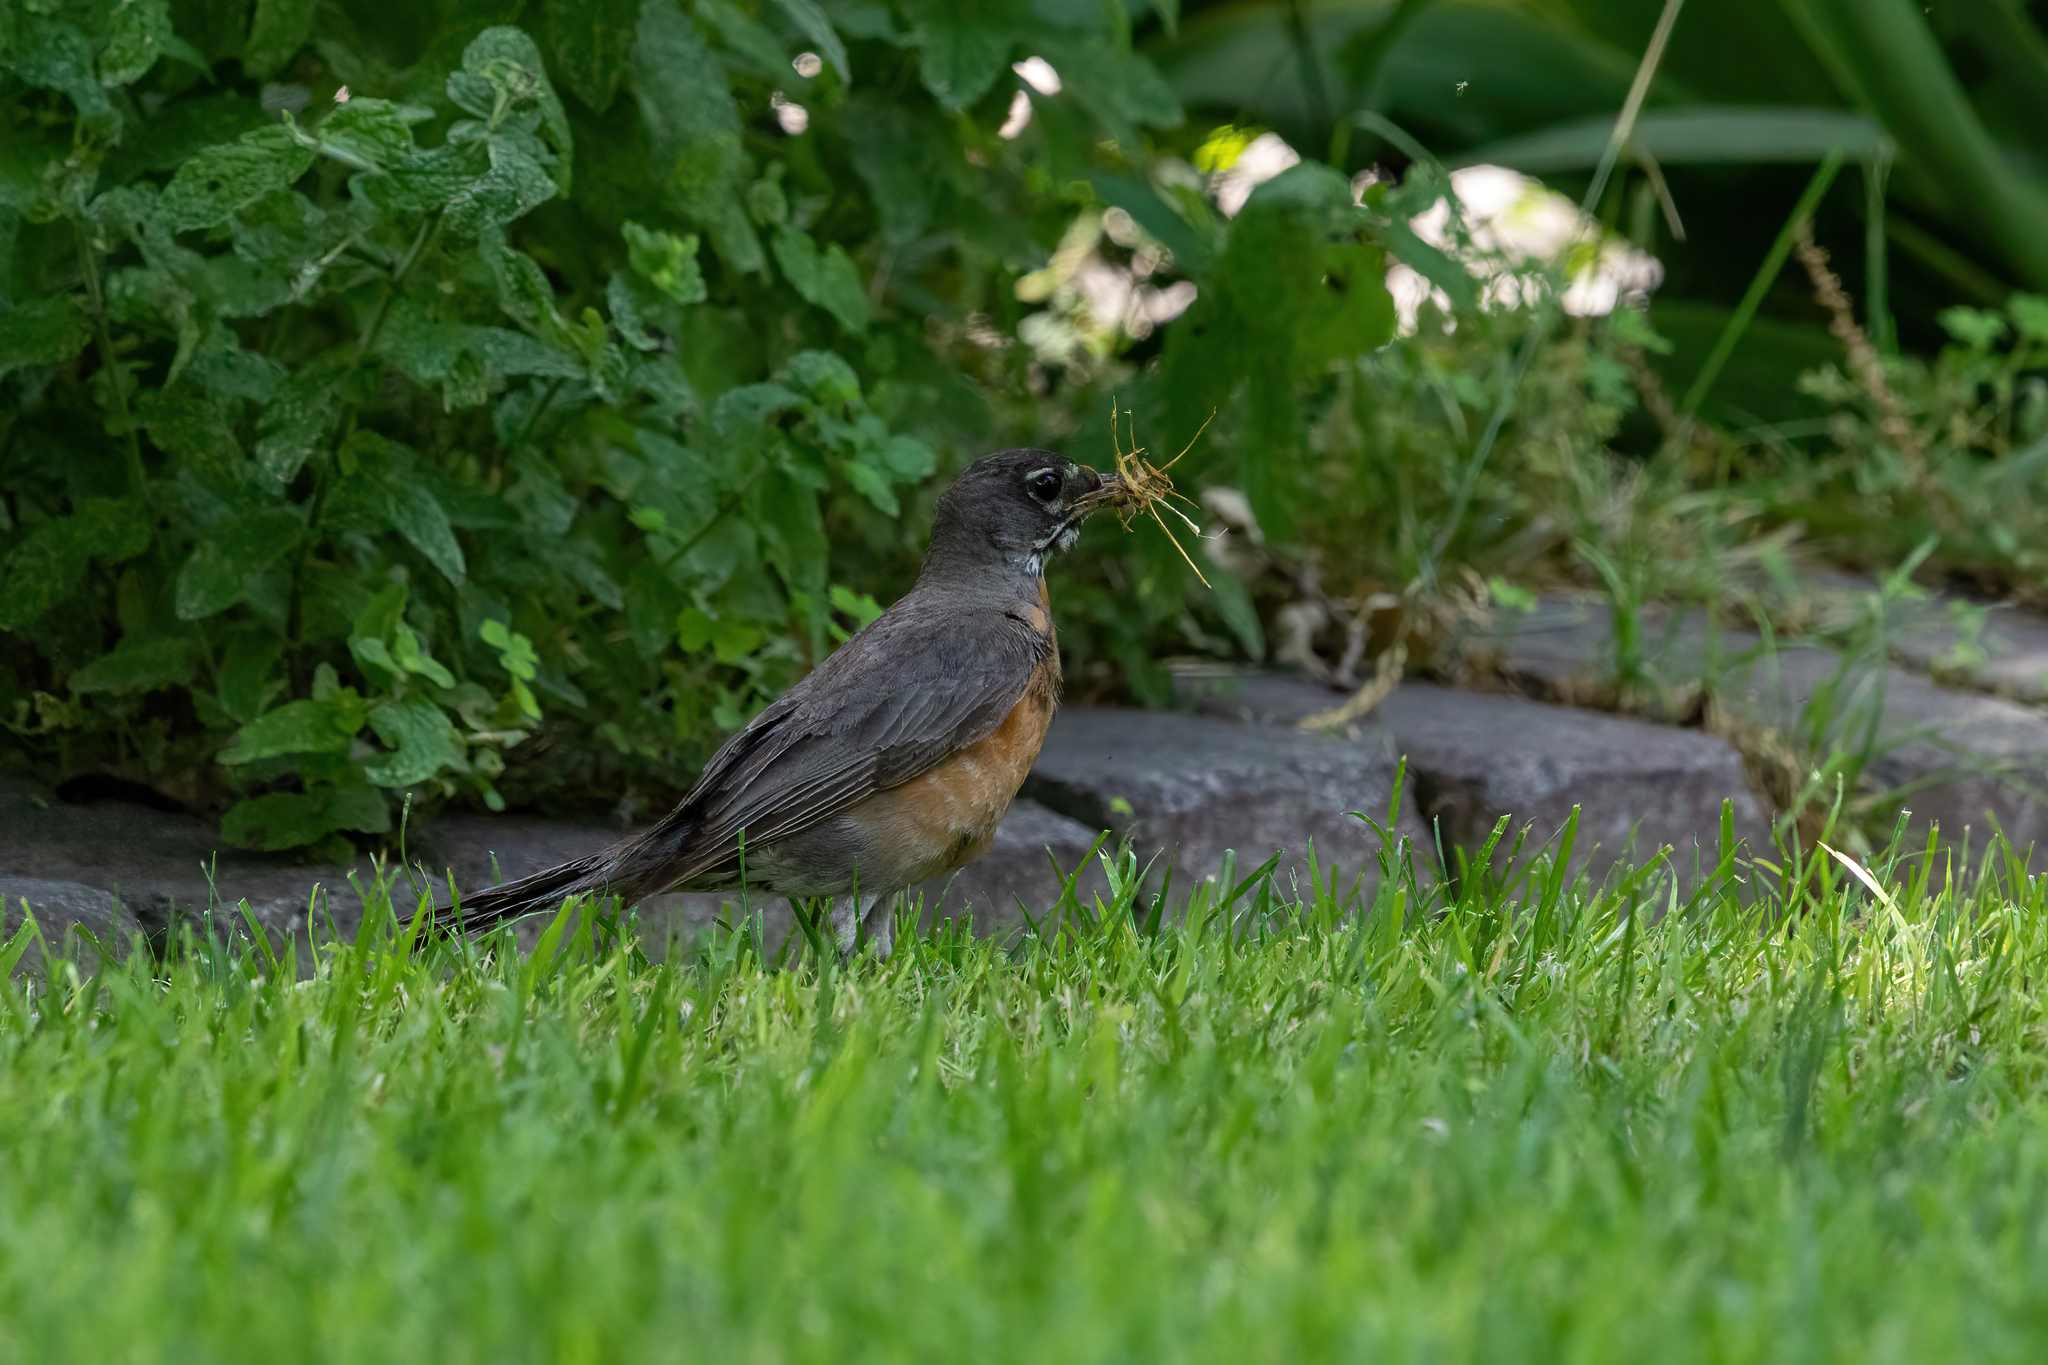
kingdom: Animalia
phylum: Chordata
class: Aves
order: Passeriformes
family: Turdidae
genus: Turdus
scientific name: Turdus migratorius
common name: American robin
